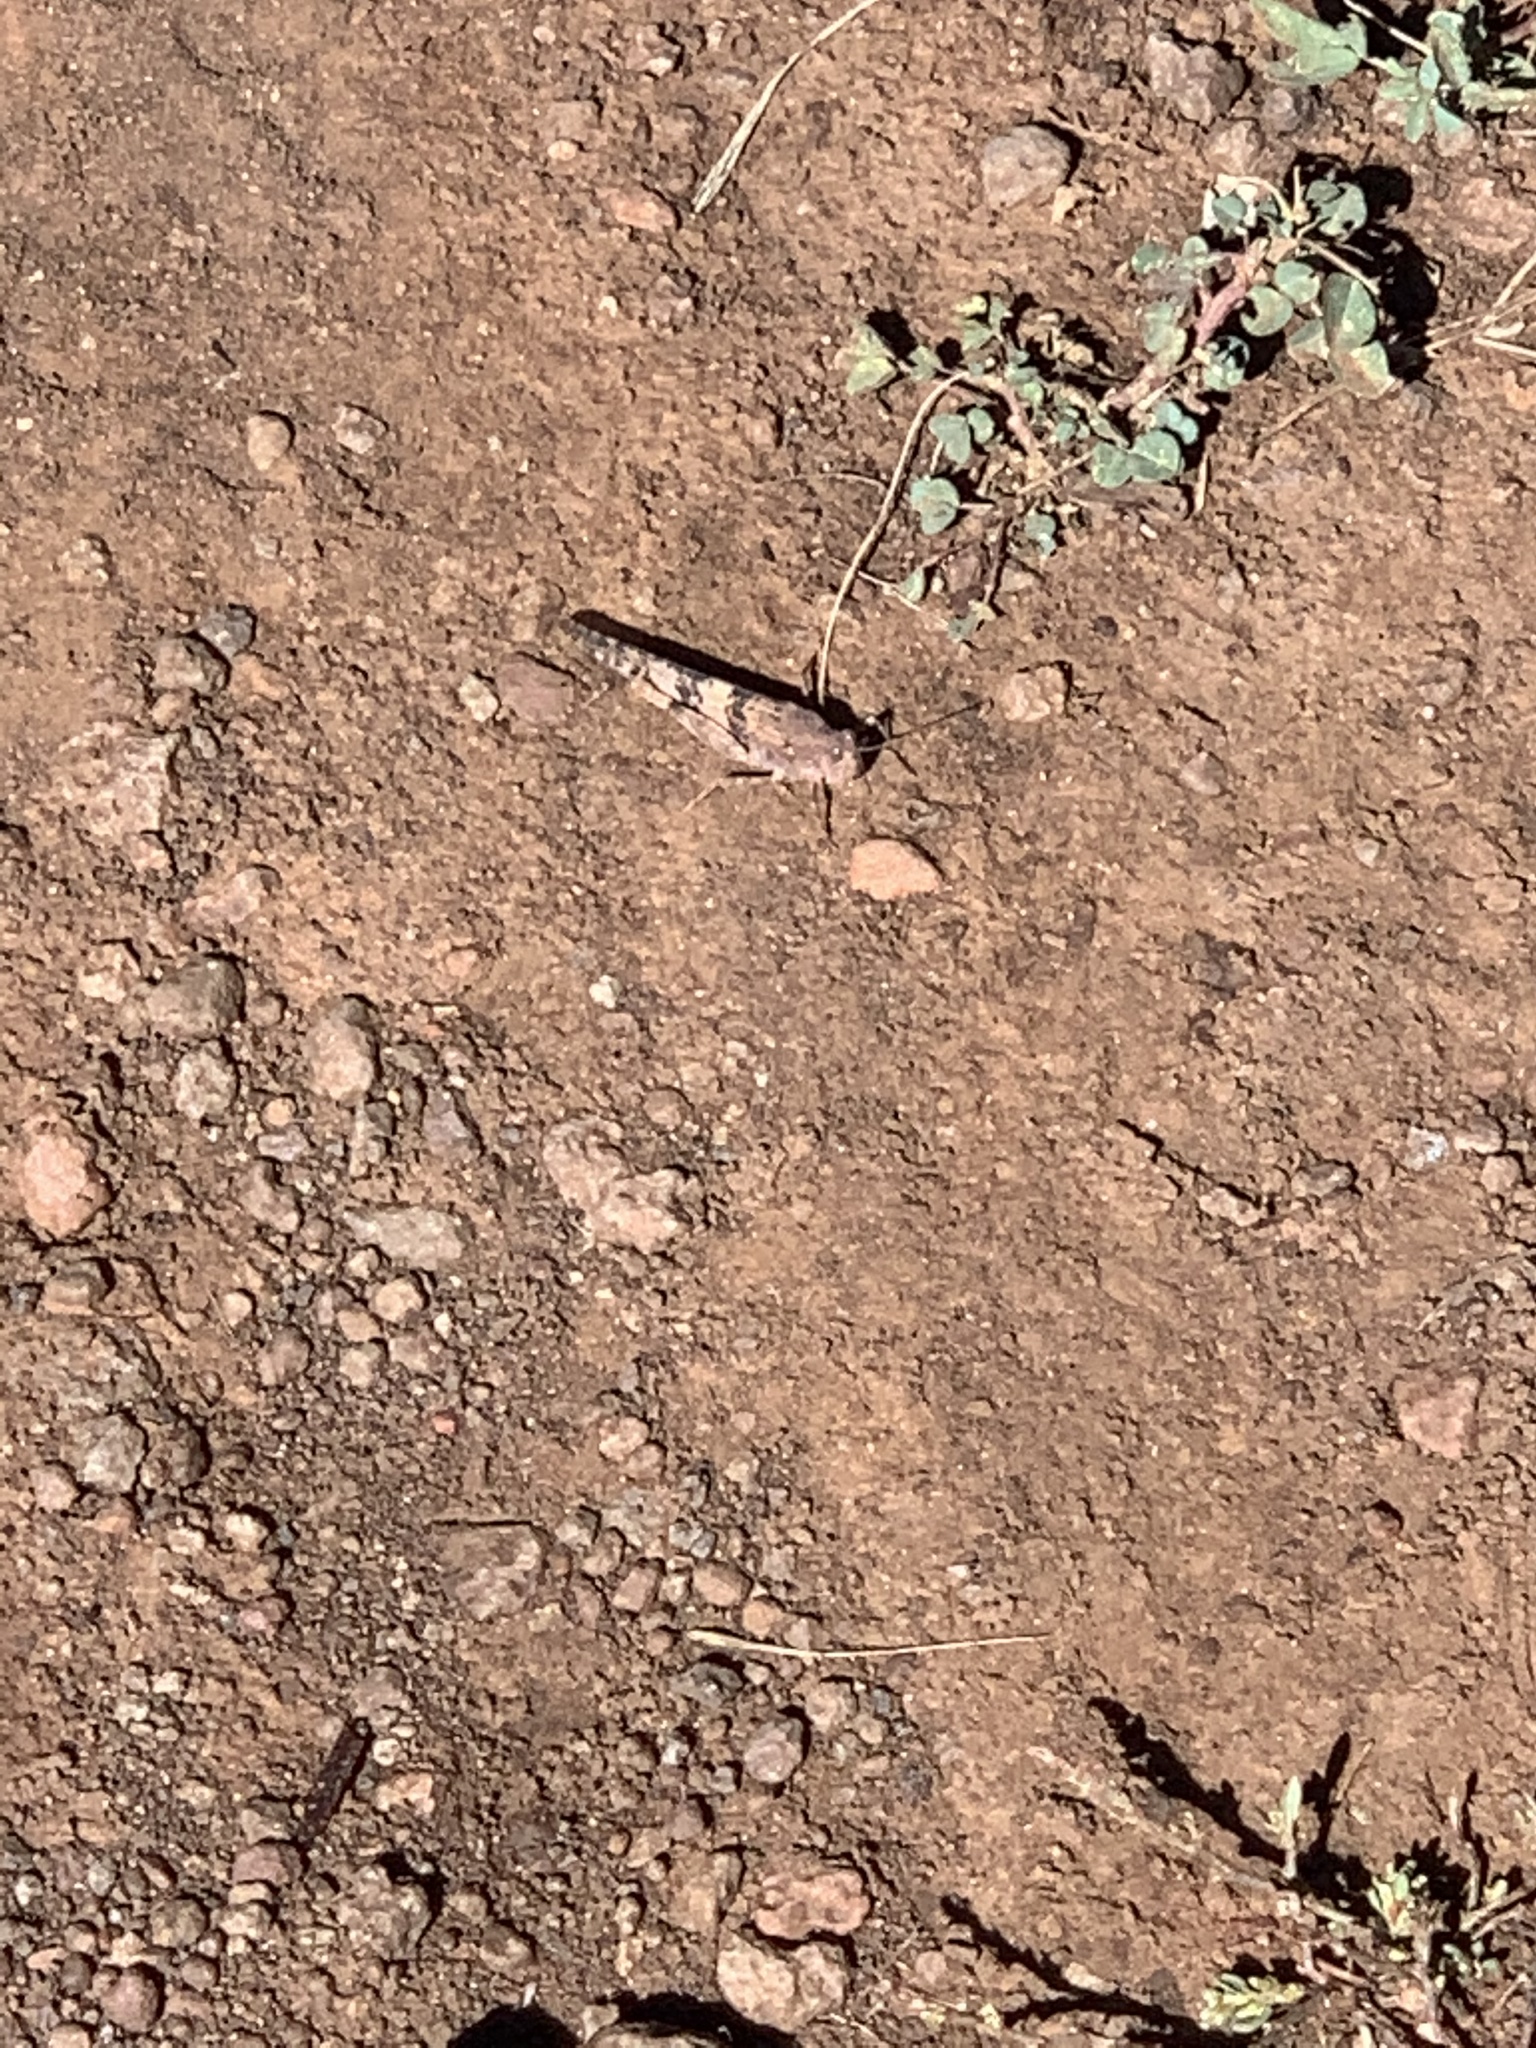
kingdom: Animalia
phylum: Arthropoda
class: Insecta
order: Orthoptera
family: Acrididae
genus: Trimerotropis
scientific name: Trimerotropis pallidipennis
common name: Pallid-winged grasshopper
